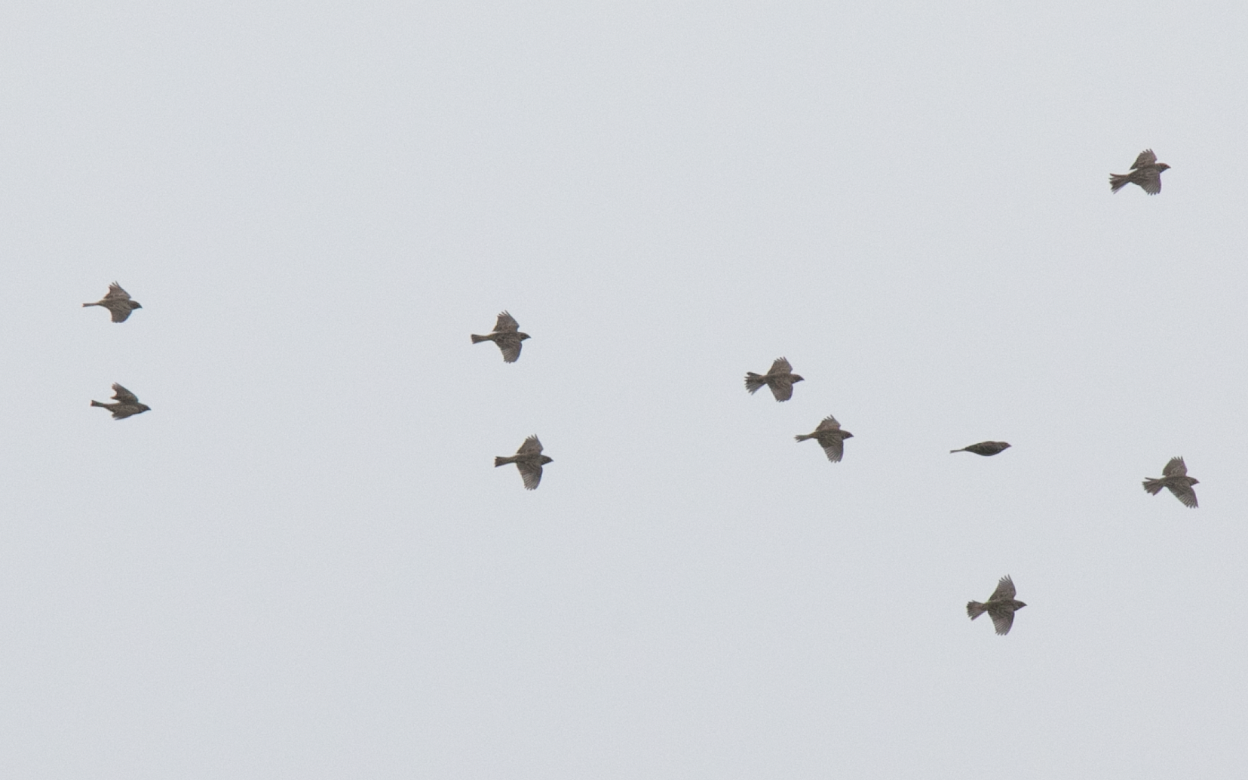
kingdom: Animalia
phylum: Chordata
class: Aves
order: Passeriformes
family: Emberizidae
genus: Emberiza
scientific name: Emberiza calandra
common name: Corn bunting
